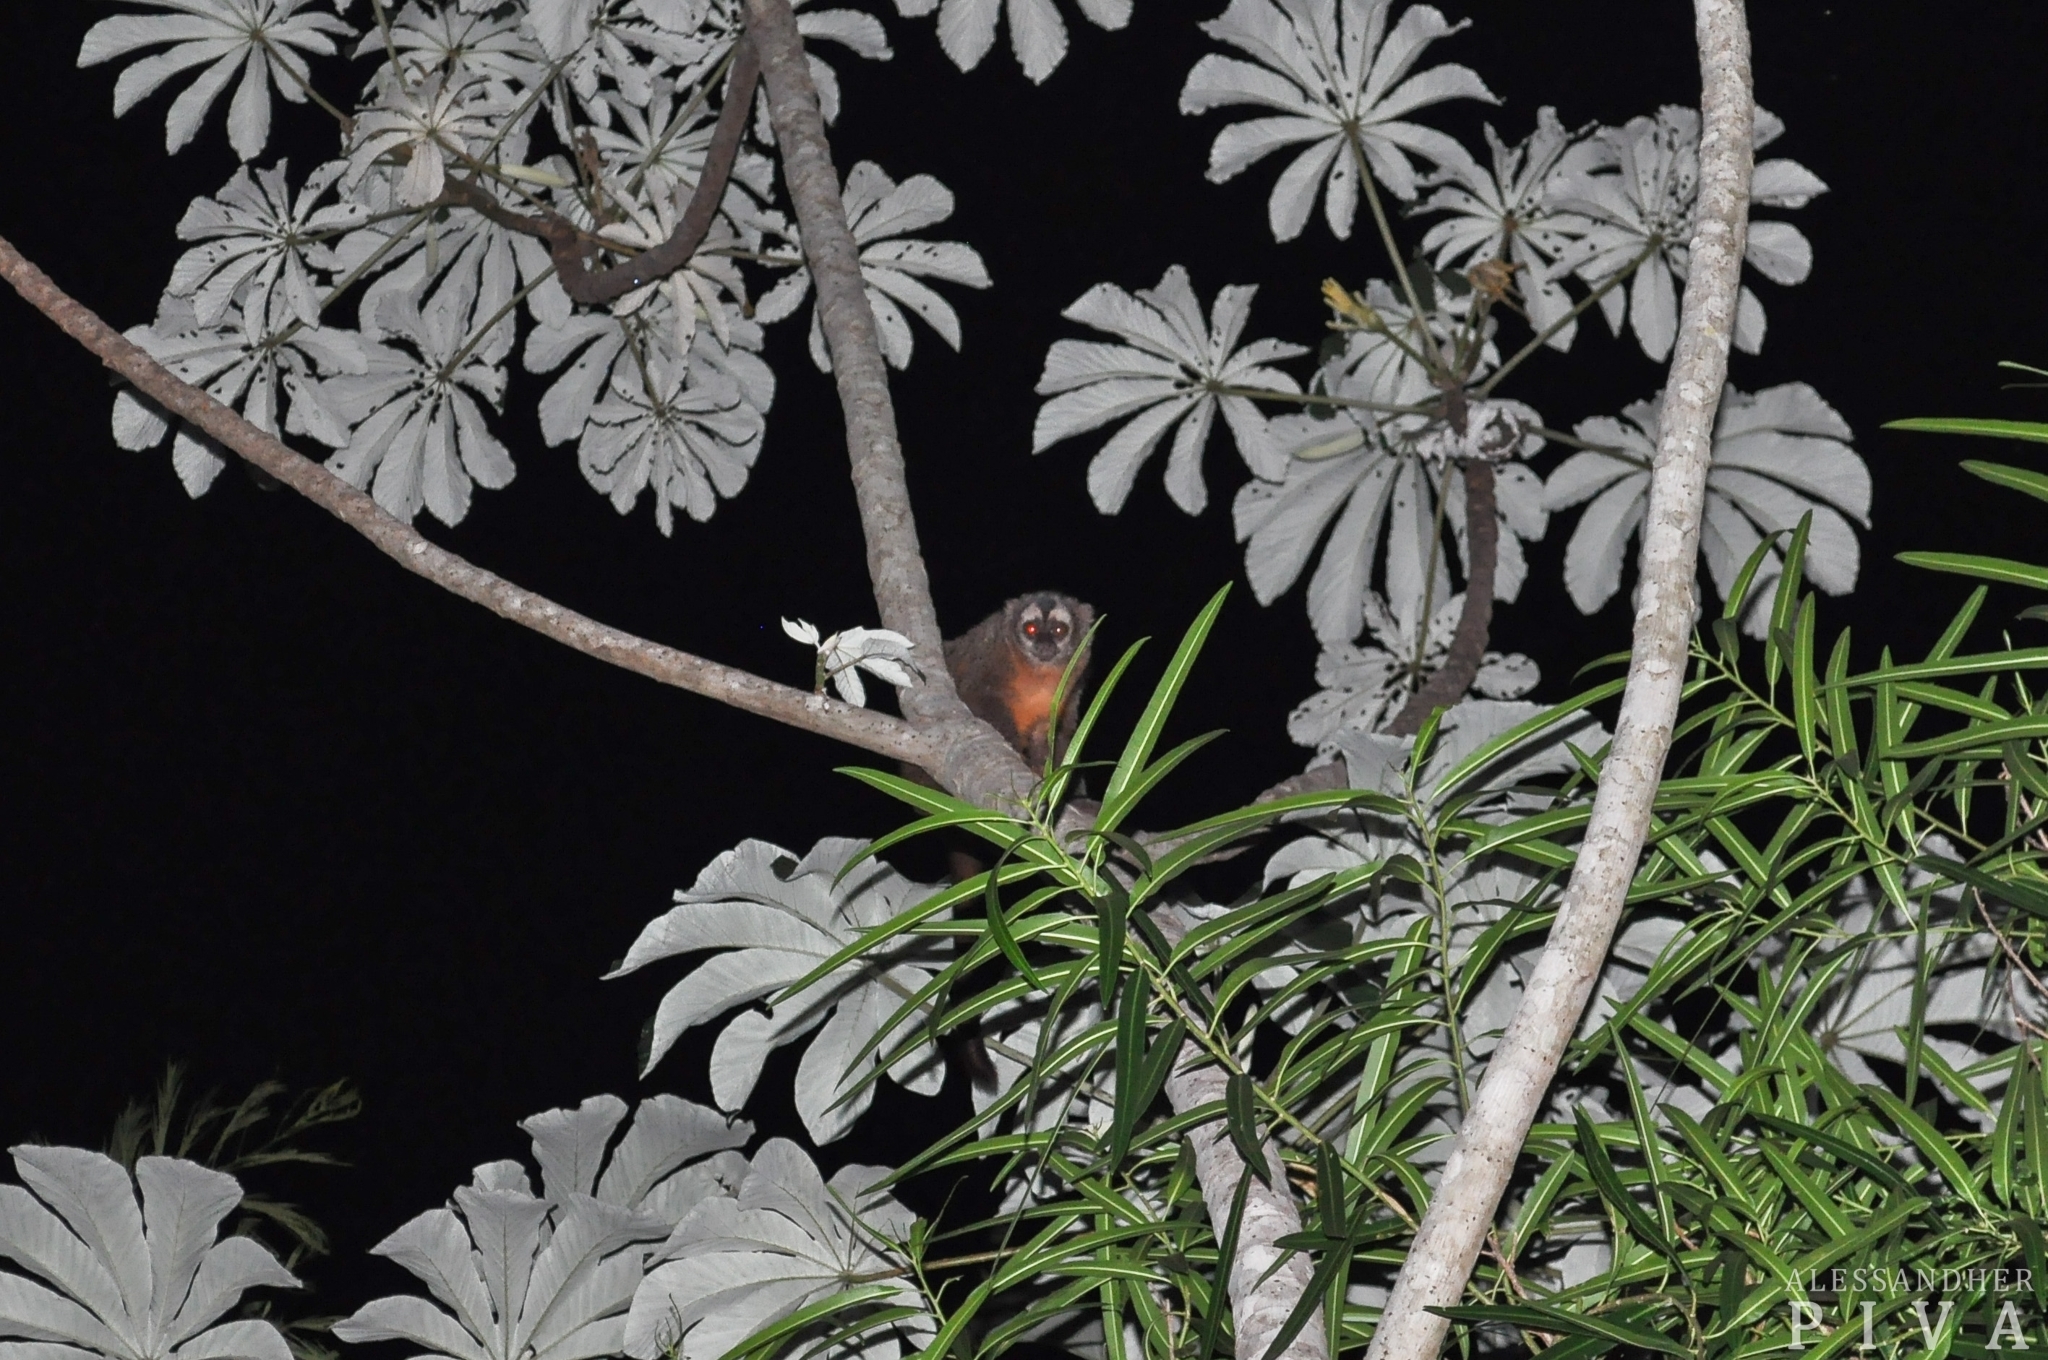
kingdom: Animalia
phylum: Chordata
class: Mammalia
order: Primates
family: Aotidae
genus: Aotus
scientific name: Aotus azarae
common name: Azara's night monkey
